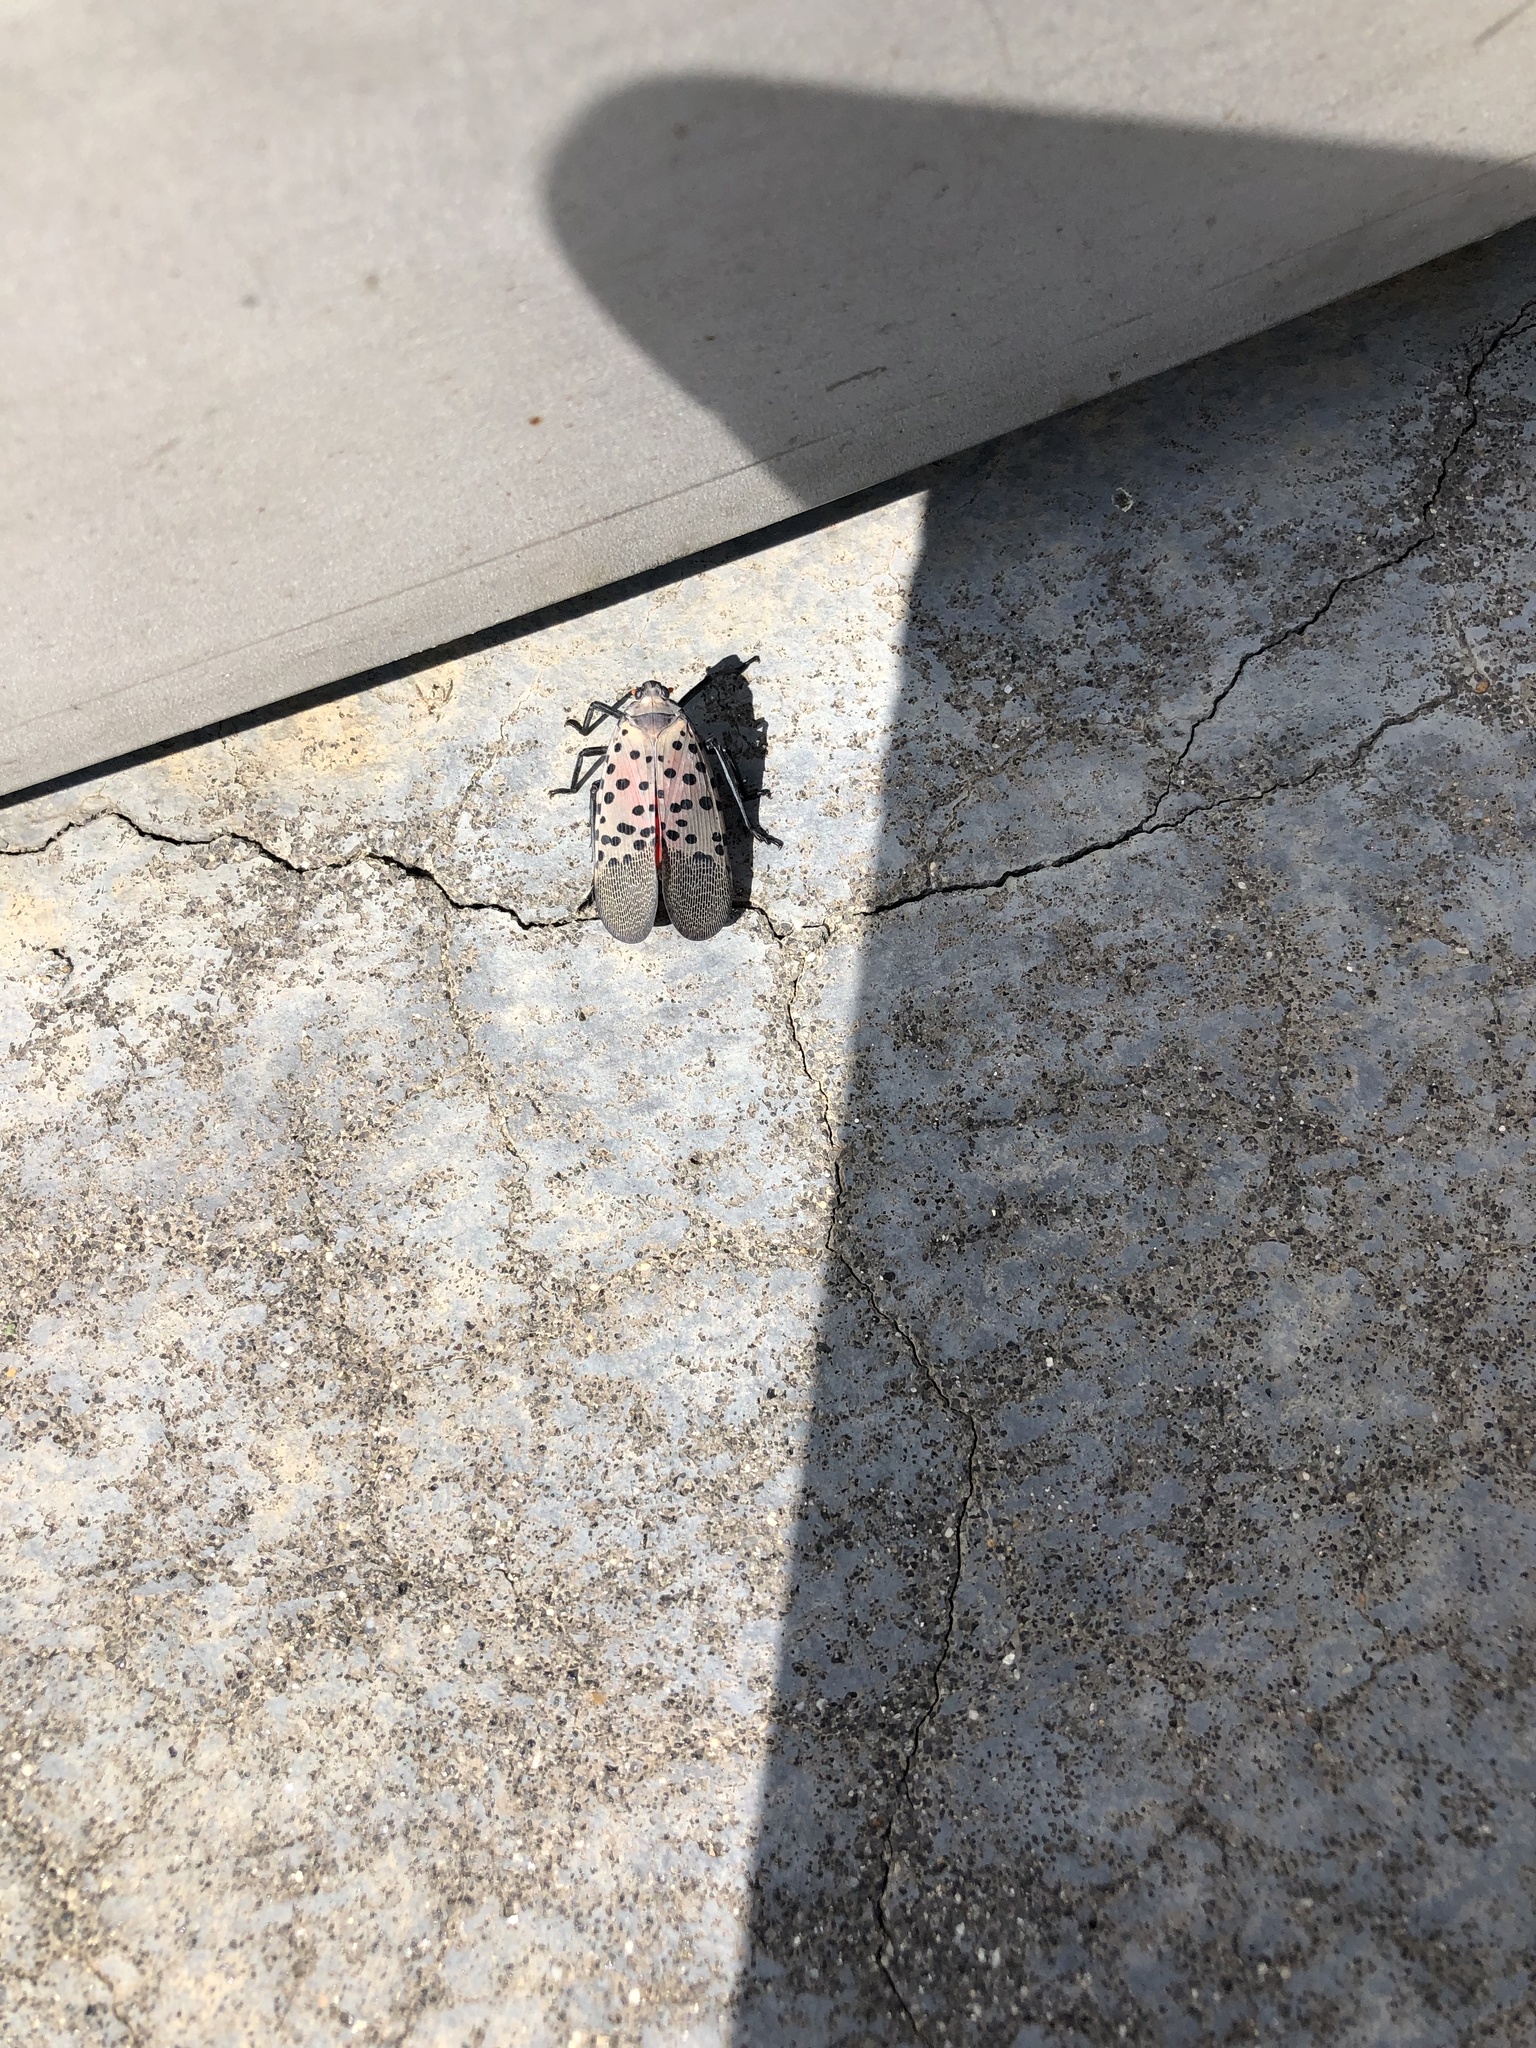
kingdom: Animalia
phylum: Arthropoda
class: Insecta
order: Hemiptera
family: Fulgoridae
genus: Lycorma
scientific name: Lycorma delicatula
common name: Spotted lanternfly
